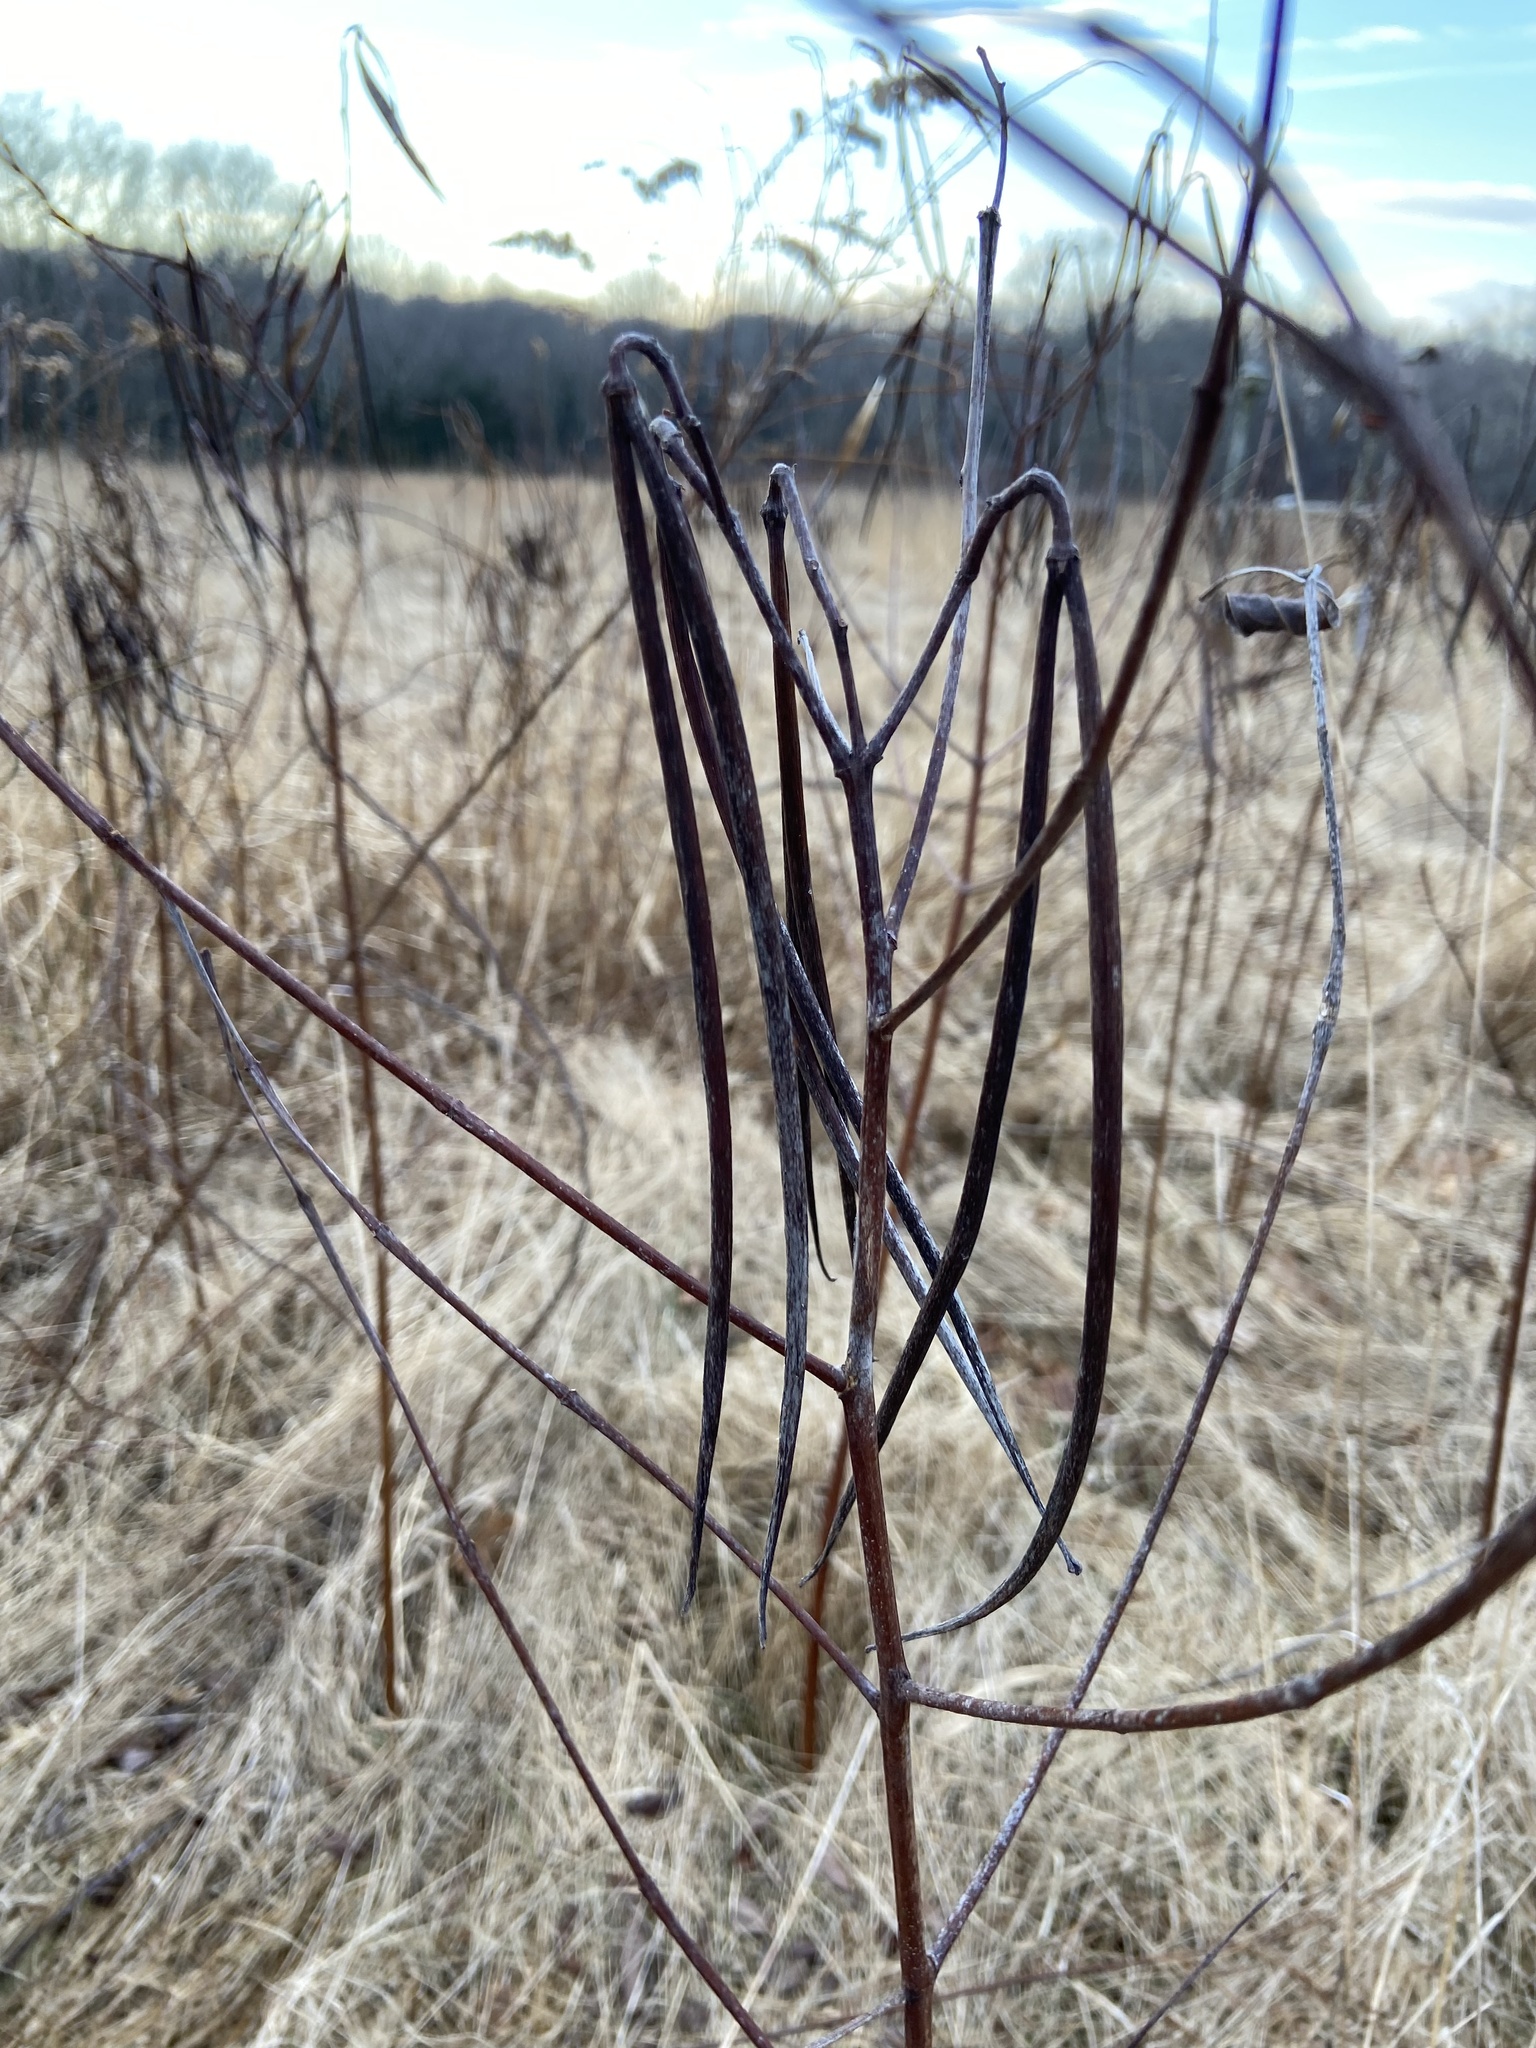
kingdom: Plantae
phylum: Tracheophyta
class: Magnoliopsida
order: Gentianales
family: Apocynaceae
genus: Apocynum
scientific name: Apocynum cannabinum
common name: Hemp dogbane
